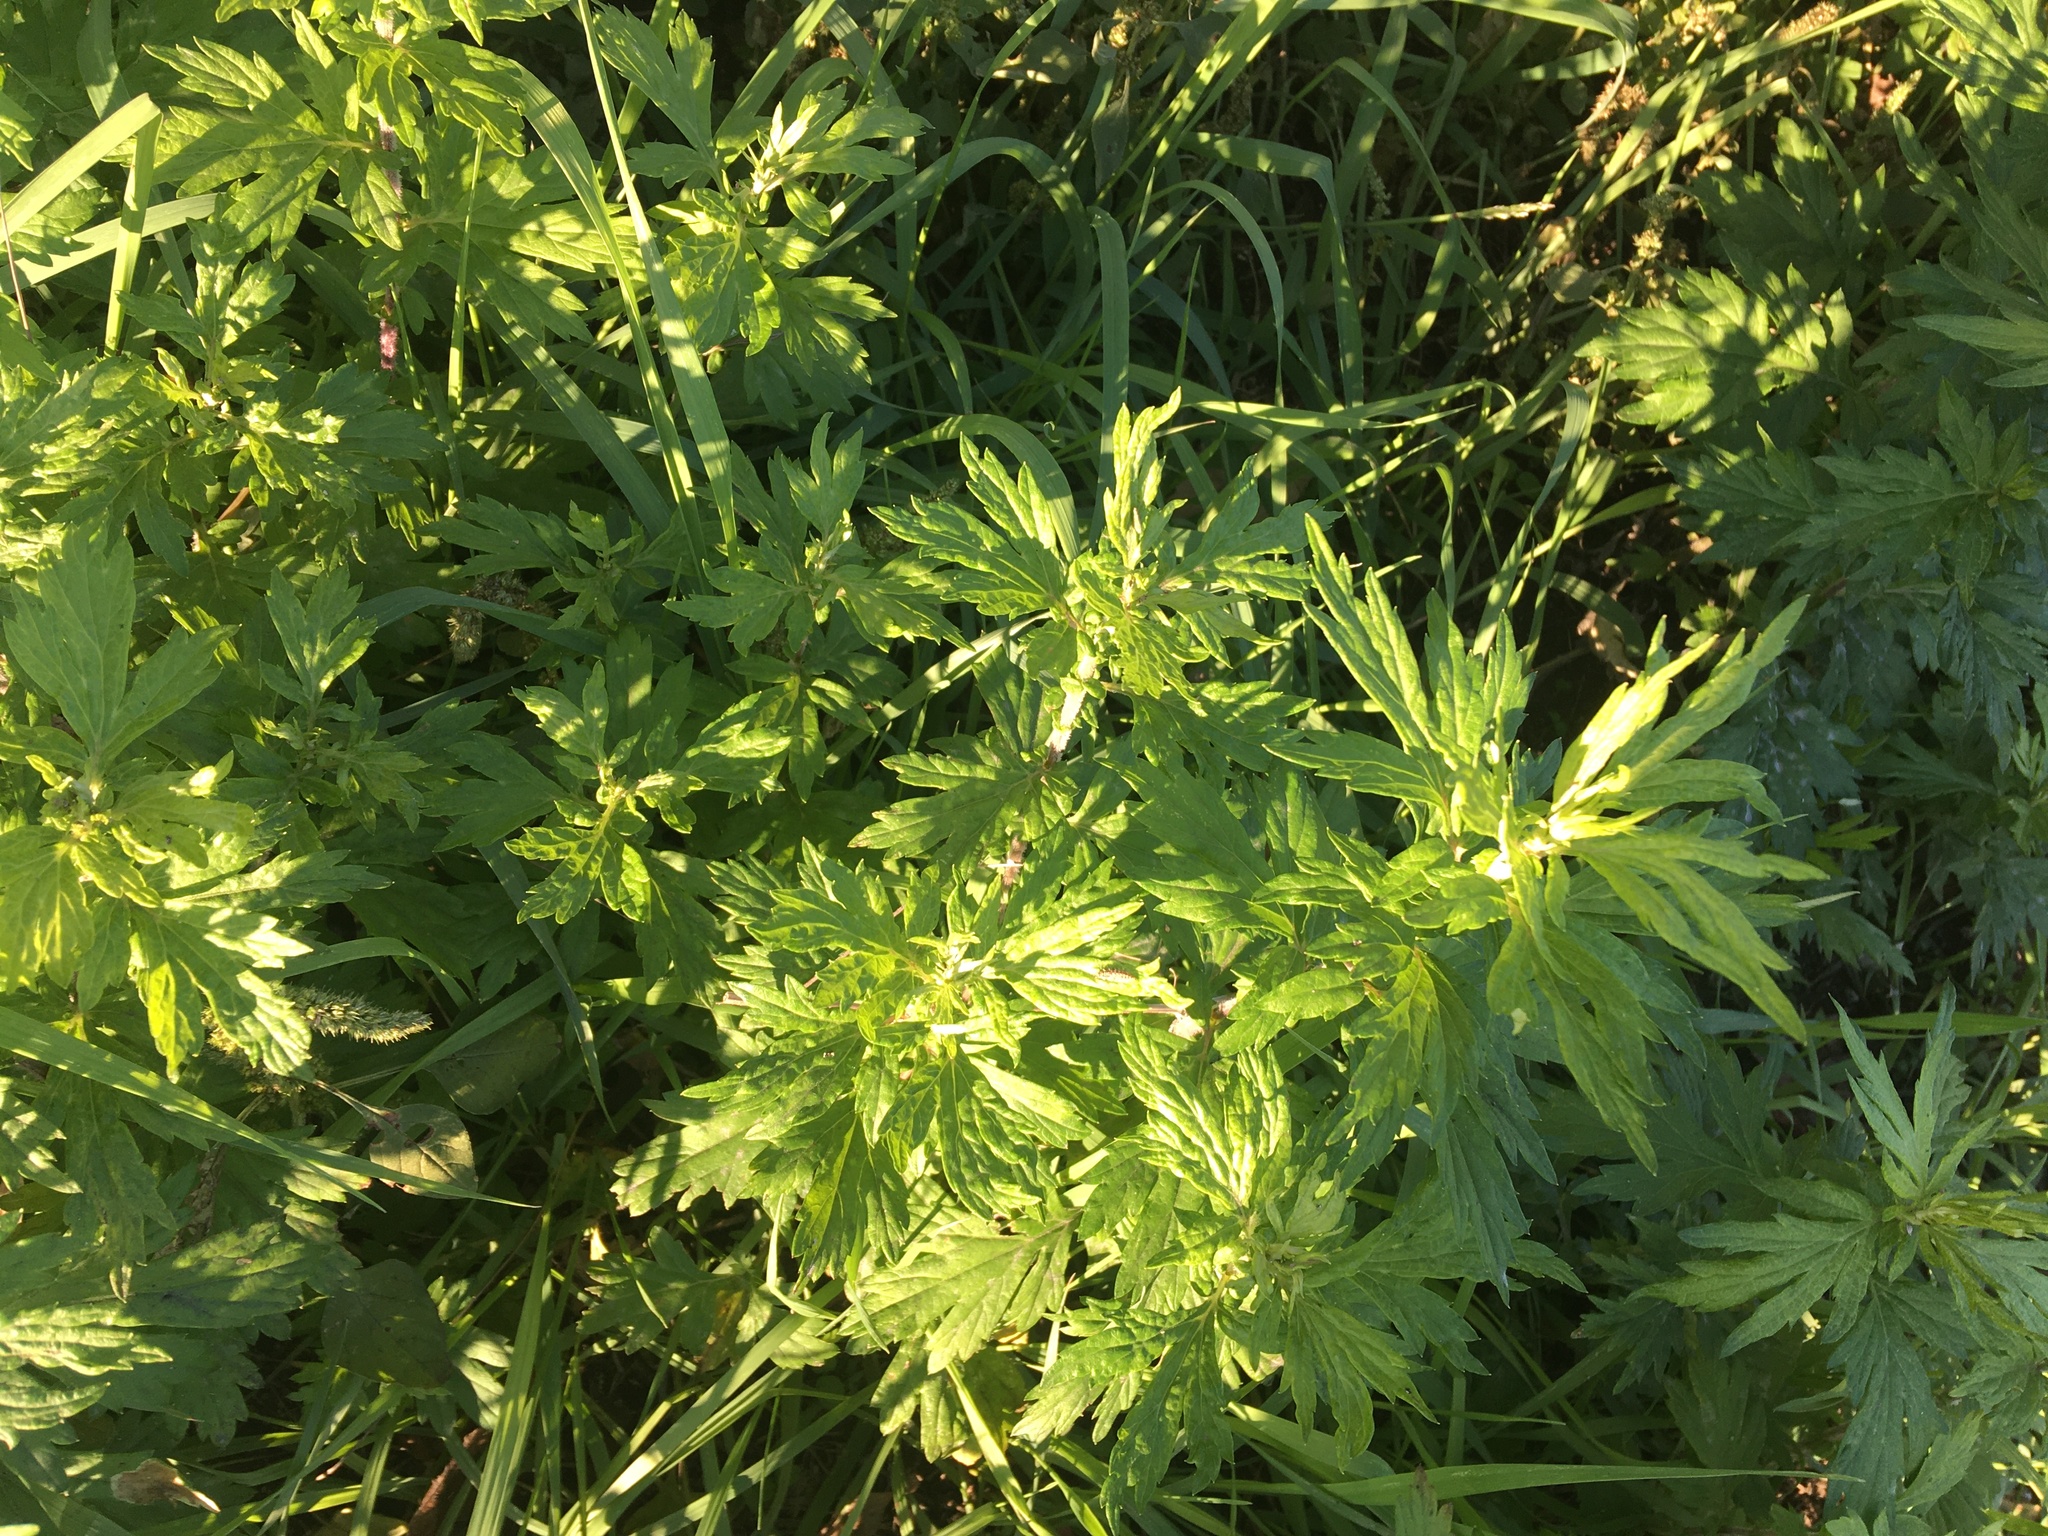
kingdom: Plantae
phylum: Tracheophyta
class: Magnoliopsida
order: Asterales
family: Asteraceae
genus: Artemisia
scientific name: Artemisia vulgaris
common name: Mugwort
